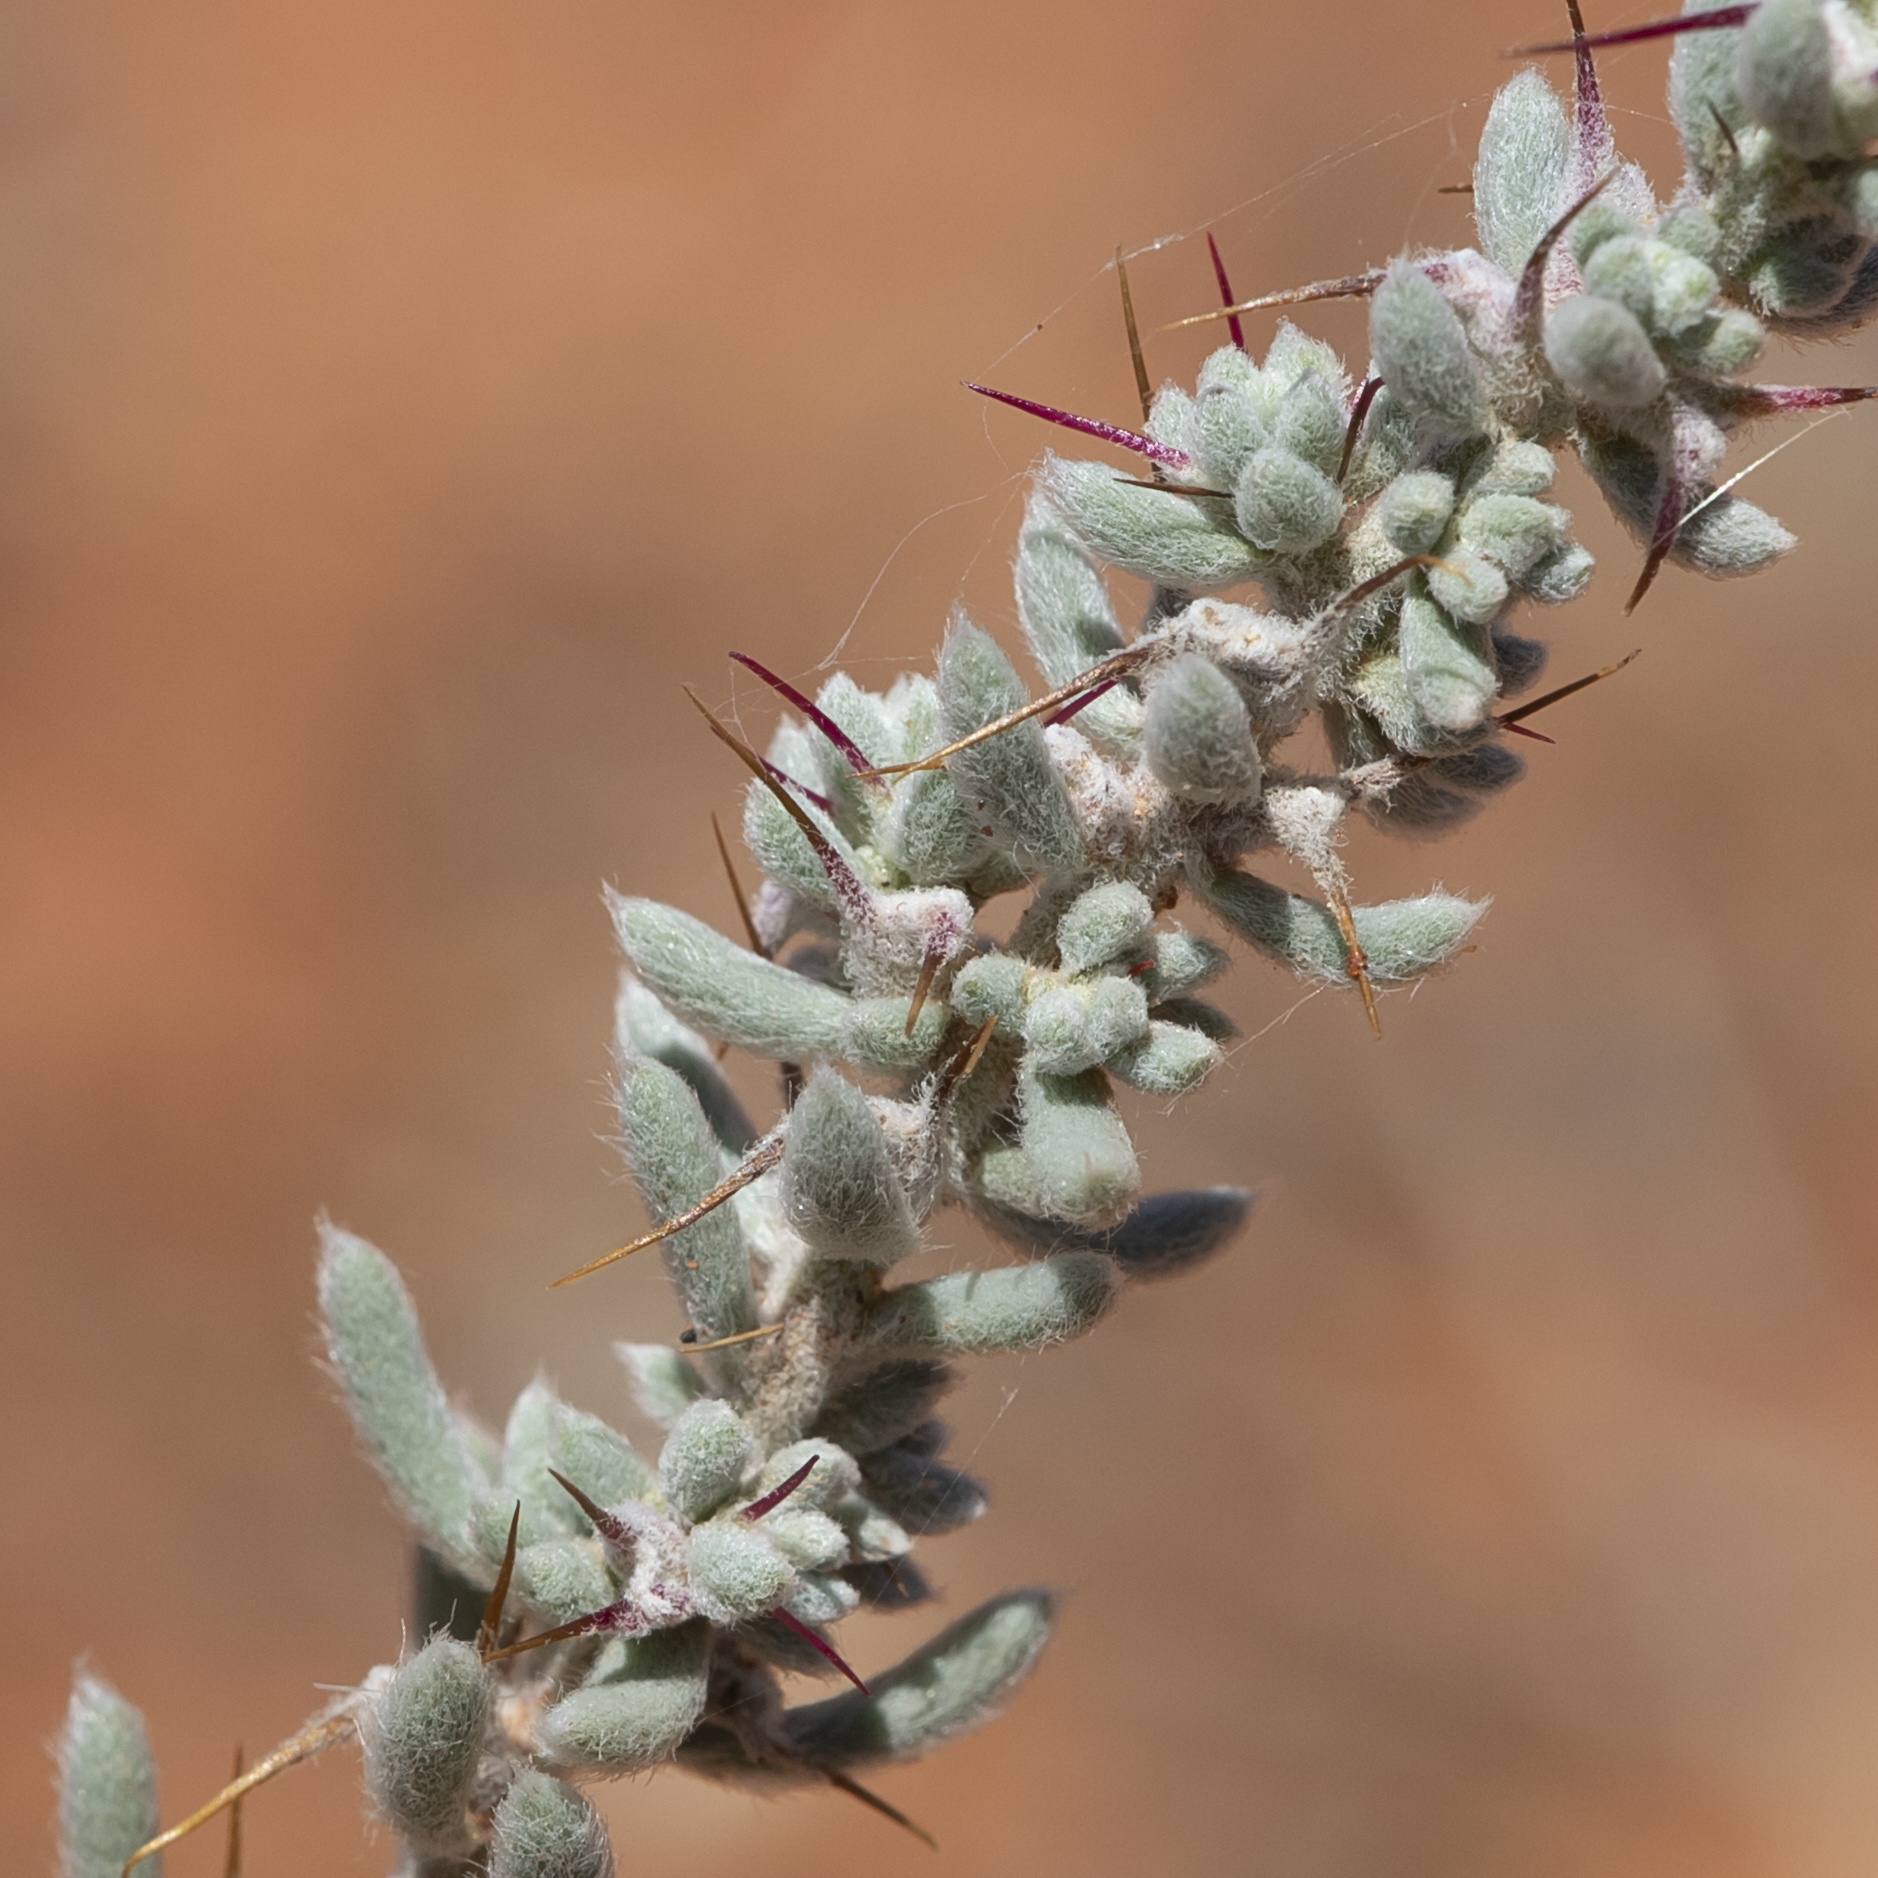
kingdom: Plantae
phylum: Tracheophyta
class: Magnoliopsida
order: Caryophyllales
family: Amaranthaceae
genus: Sclerolaena
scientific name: Sclerolaena obliquicuspis
